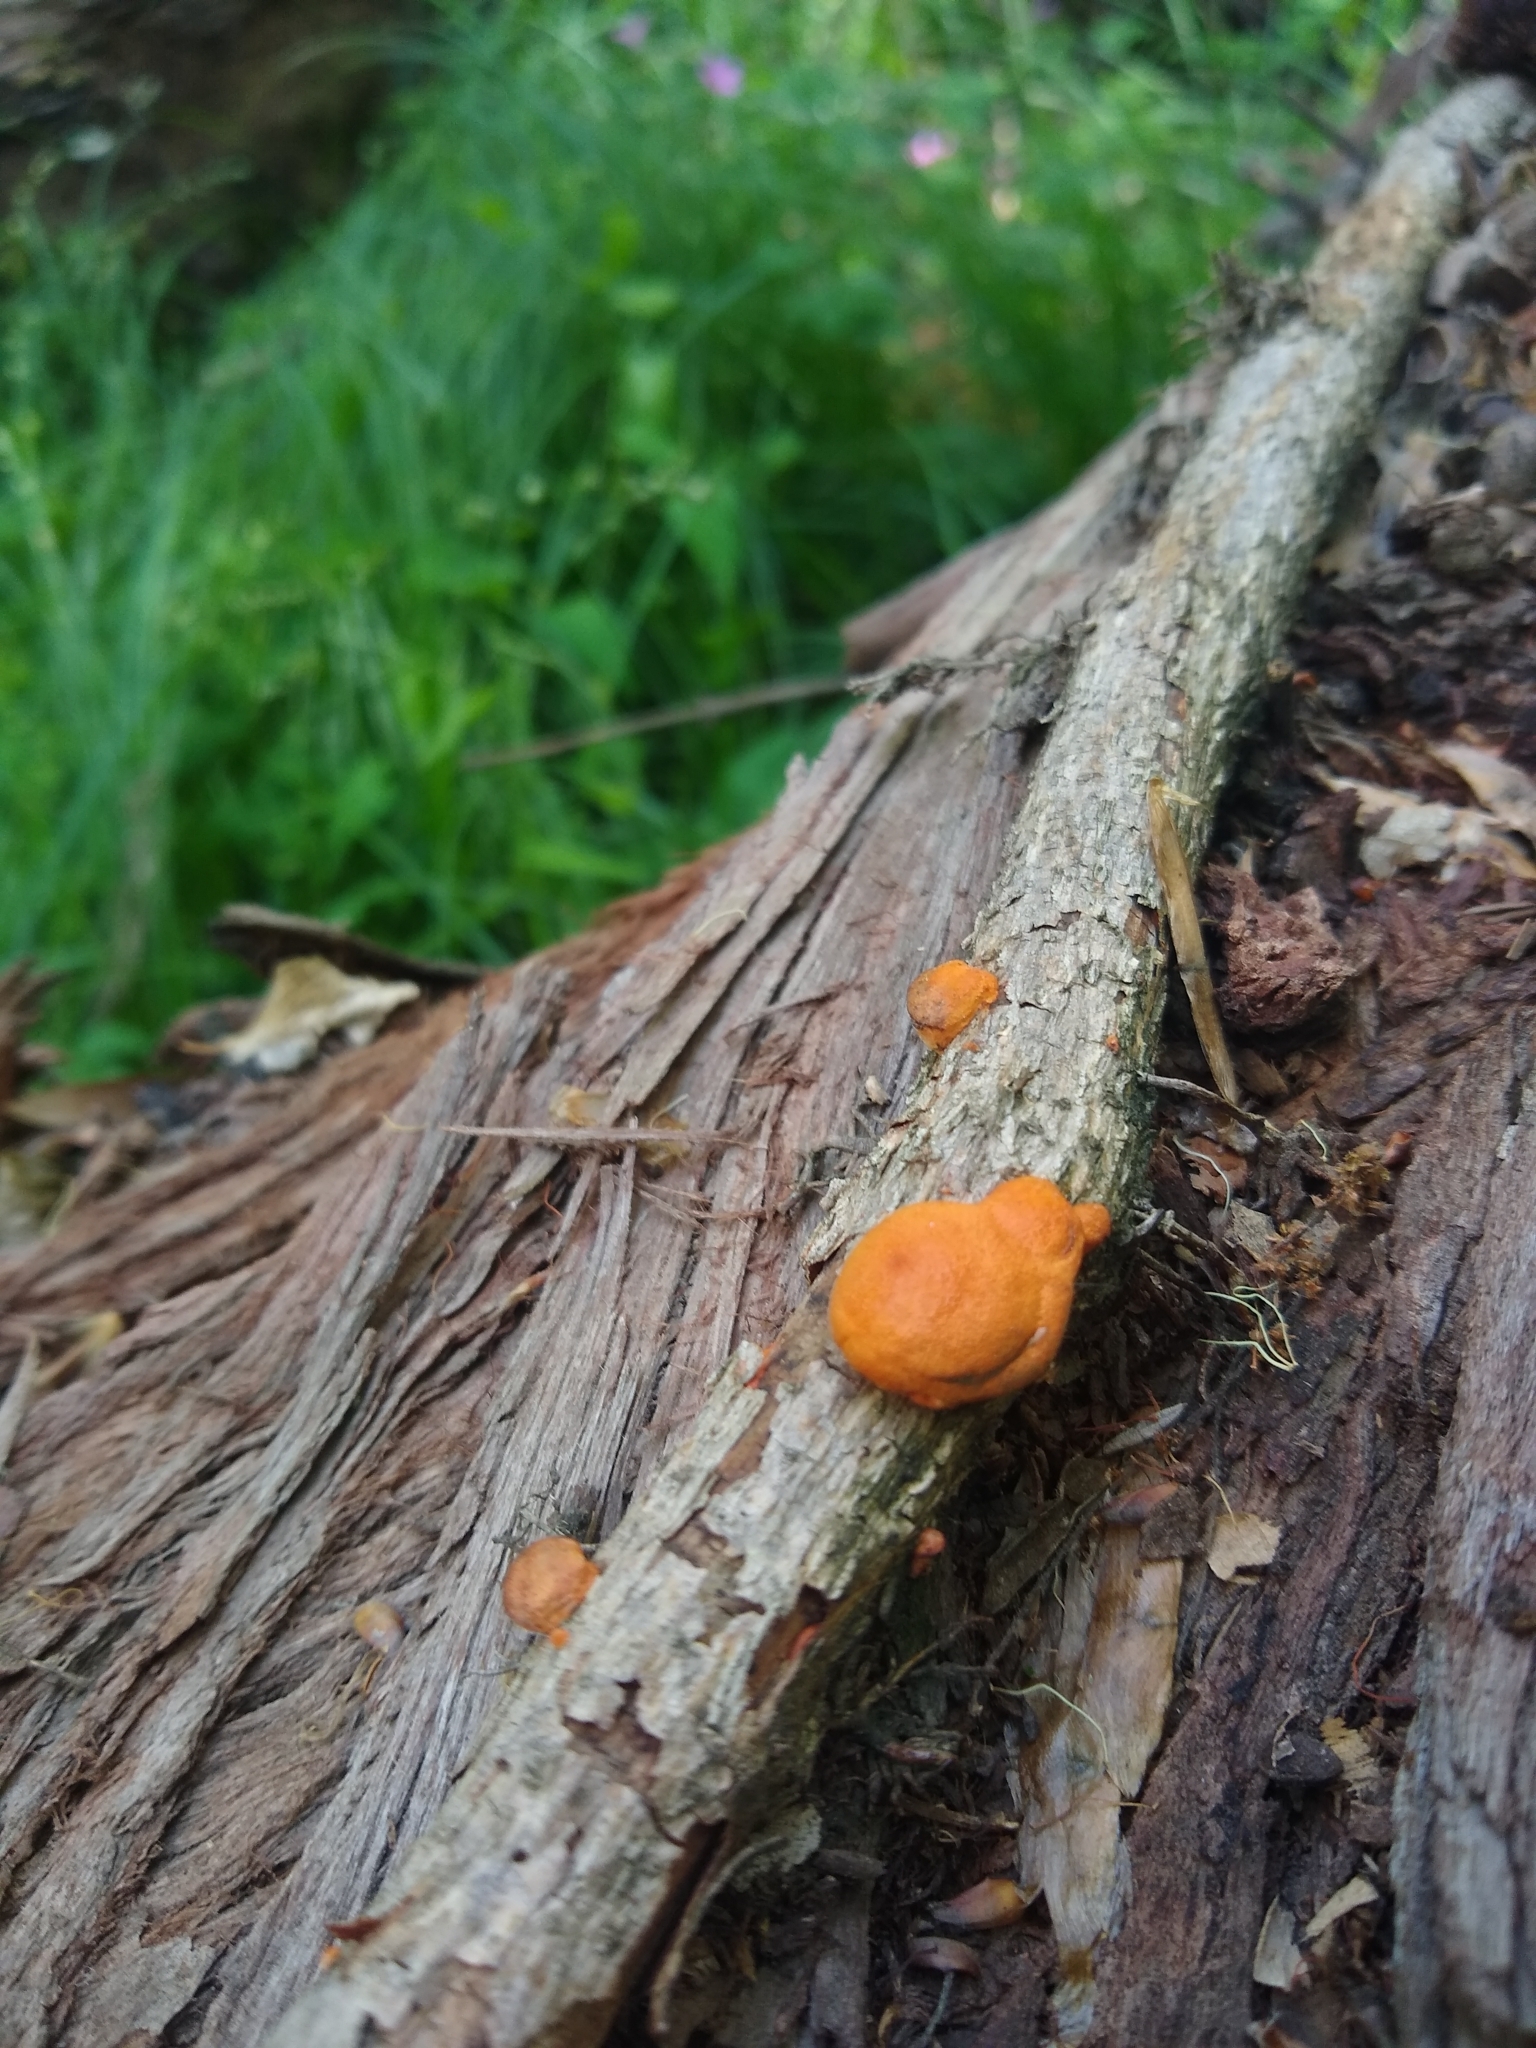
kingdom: Fungi
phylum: Basidiomycota
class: Agaricomycetes
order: Polyporales
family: Polyporaceae
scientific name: Polyporaceae
